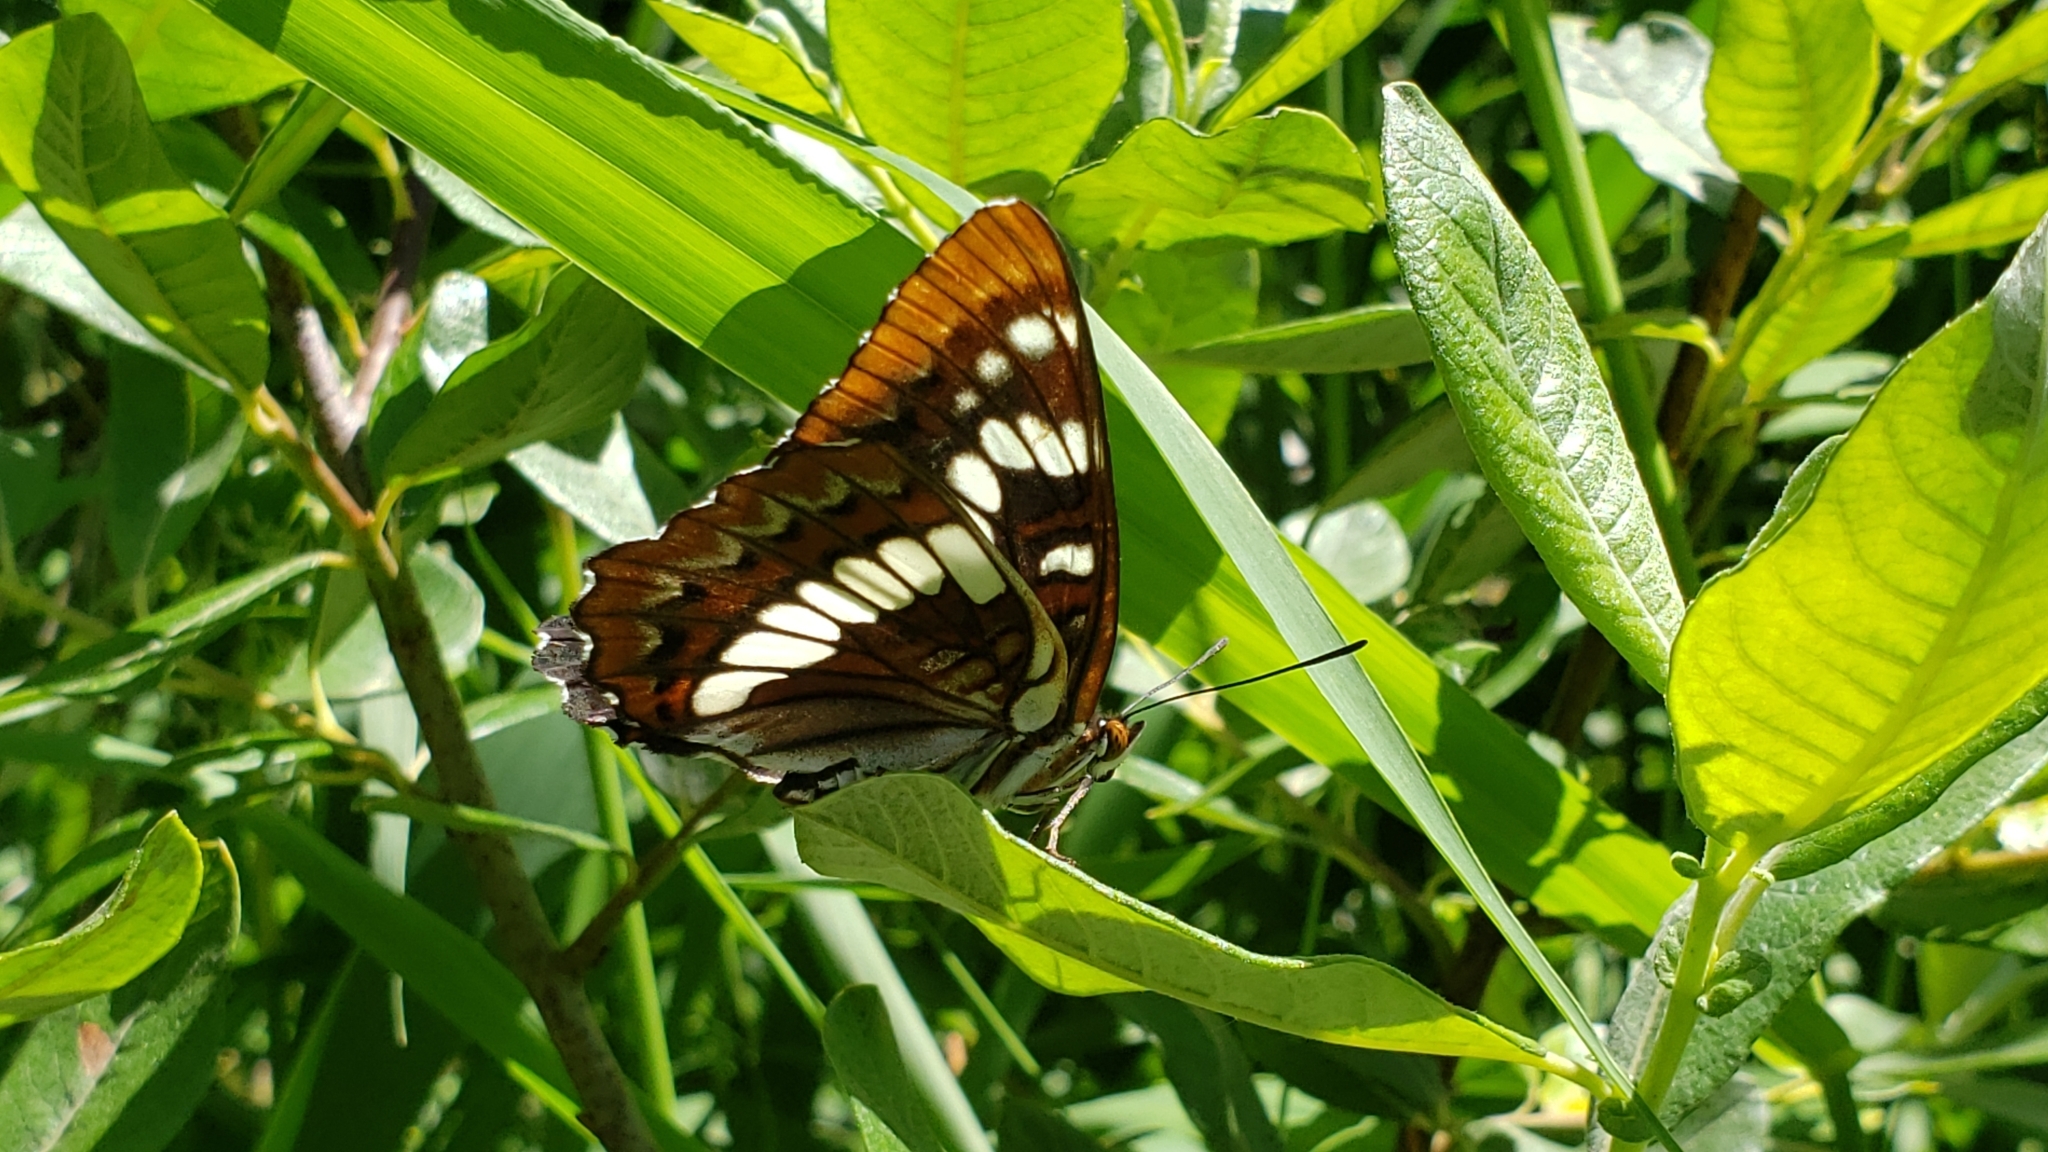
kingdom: Animalia
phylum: Arthropoda
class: Insecta
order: Lepidoptera
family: Nymphalidae
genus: Limenitis
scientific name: Limenitis lorquini
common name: Lorquin's admiral
